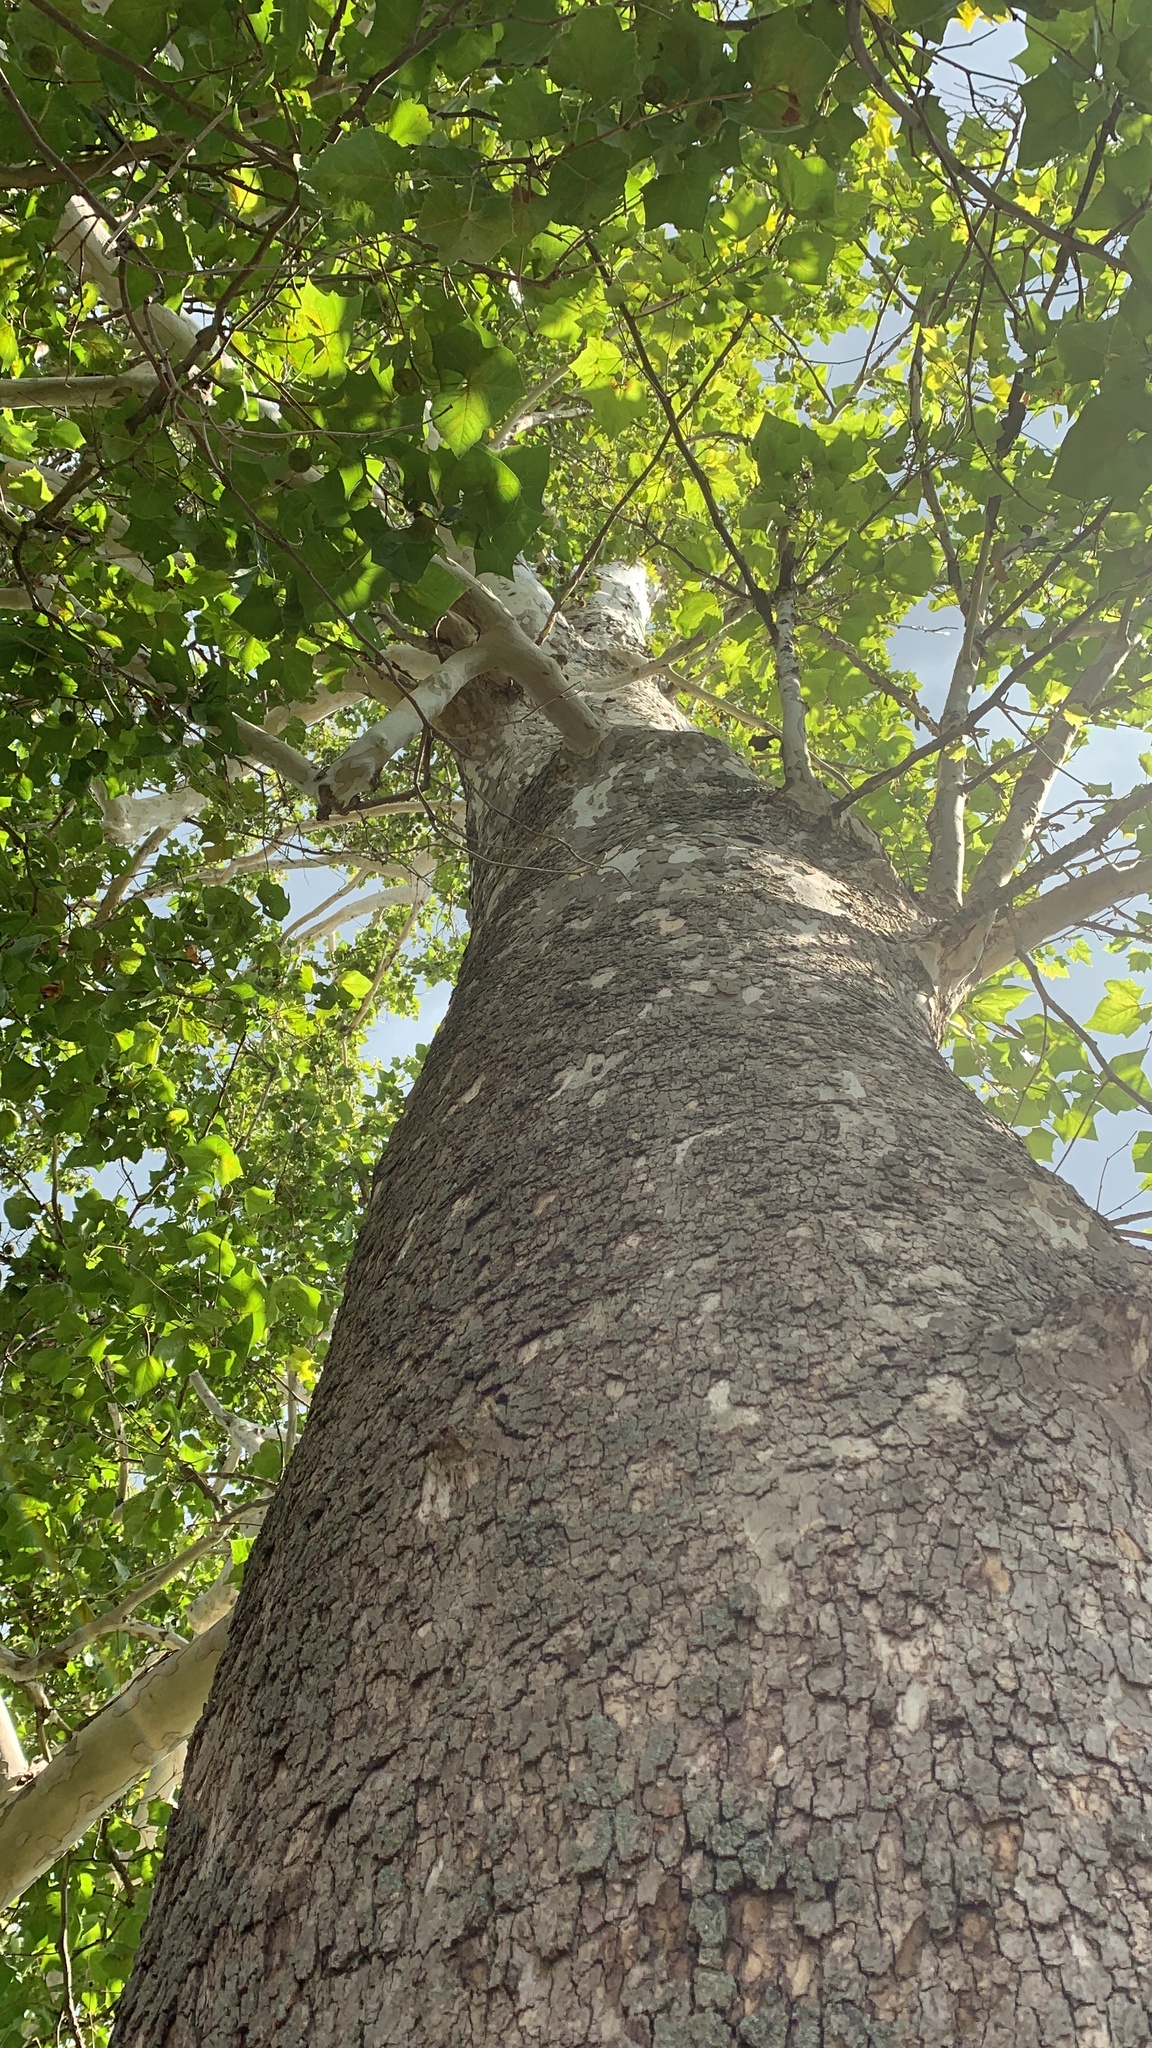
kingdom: Plantae
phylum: Tracheophyta
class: Magnoliopsida
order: Proteales
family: Platanaceae
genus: Platanus
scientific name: Platanus occidentalis
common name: American sycamore
